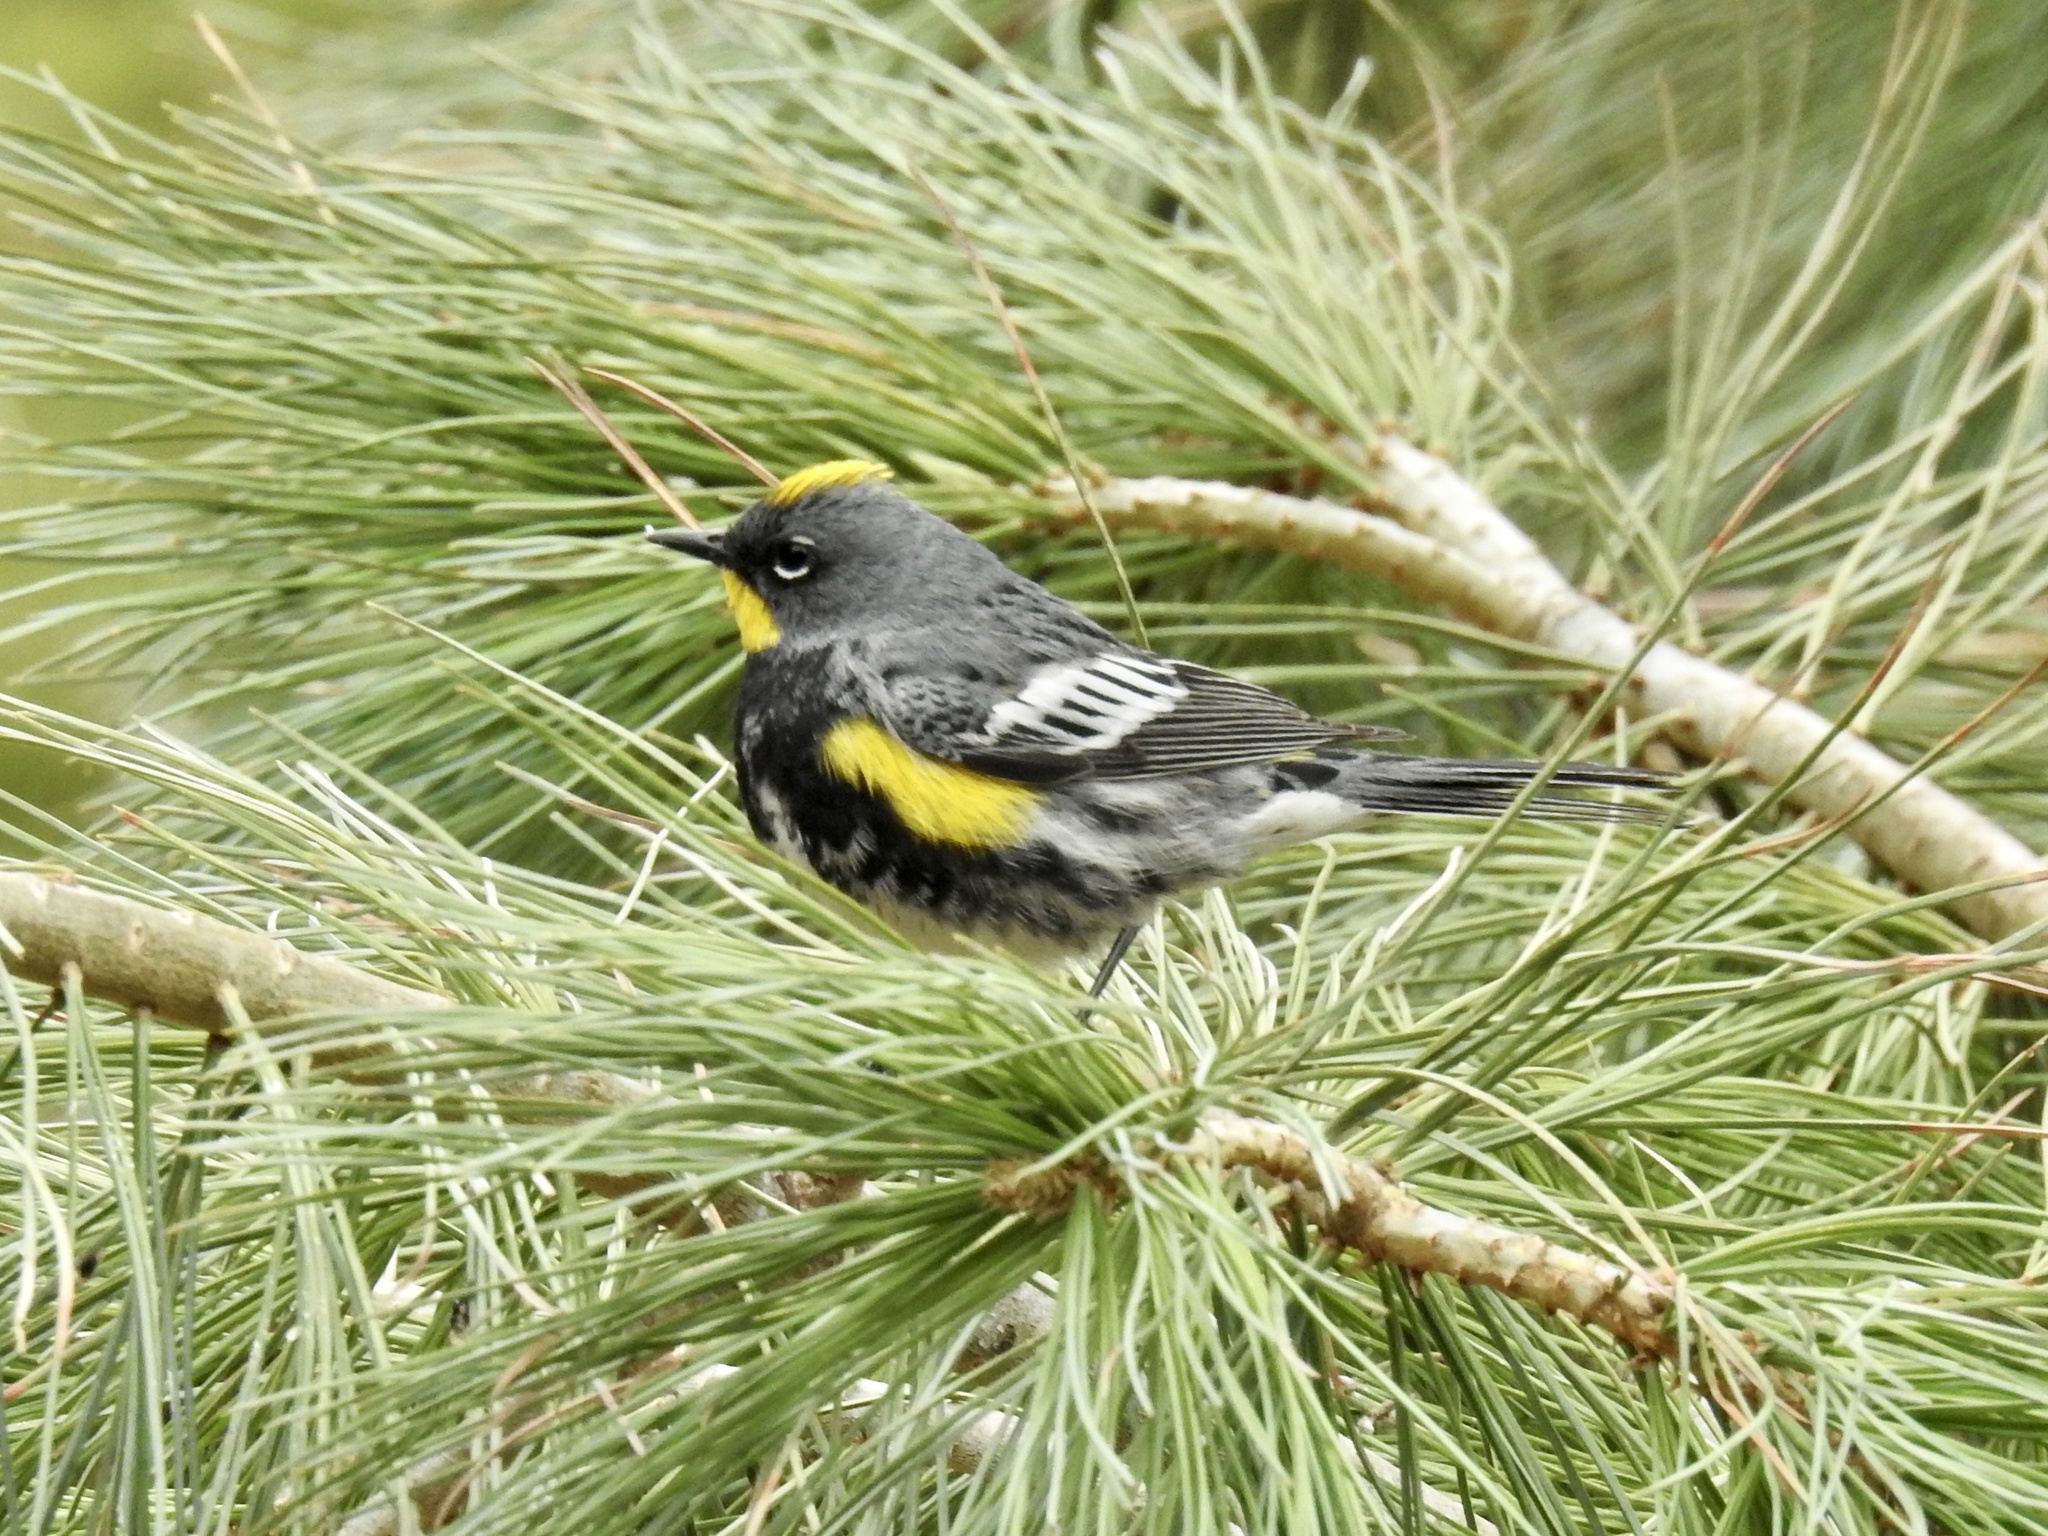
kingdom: Animalia
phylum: Chordata
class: Aves
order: Passeriformes
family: Parulidae
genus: Setophaga
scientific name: Setophaga auduboni
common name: Audubon's warbler
